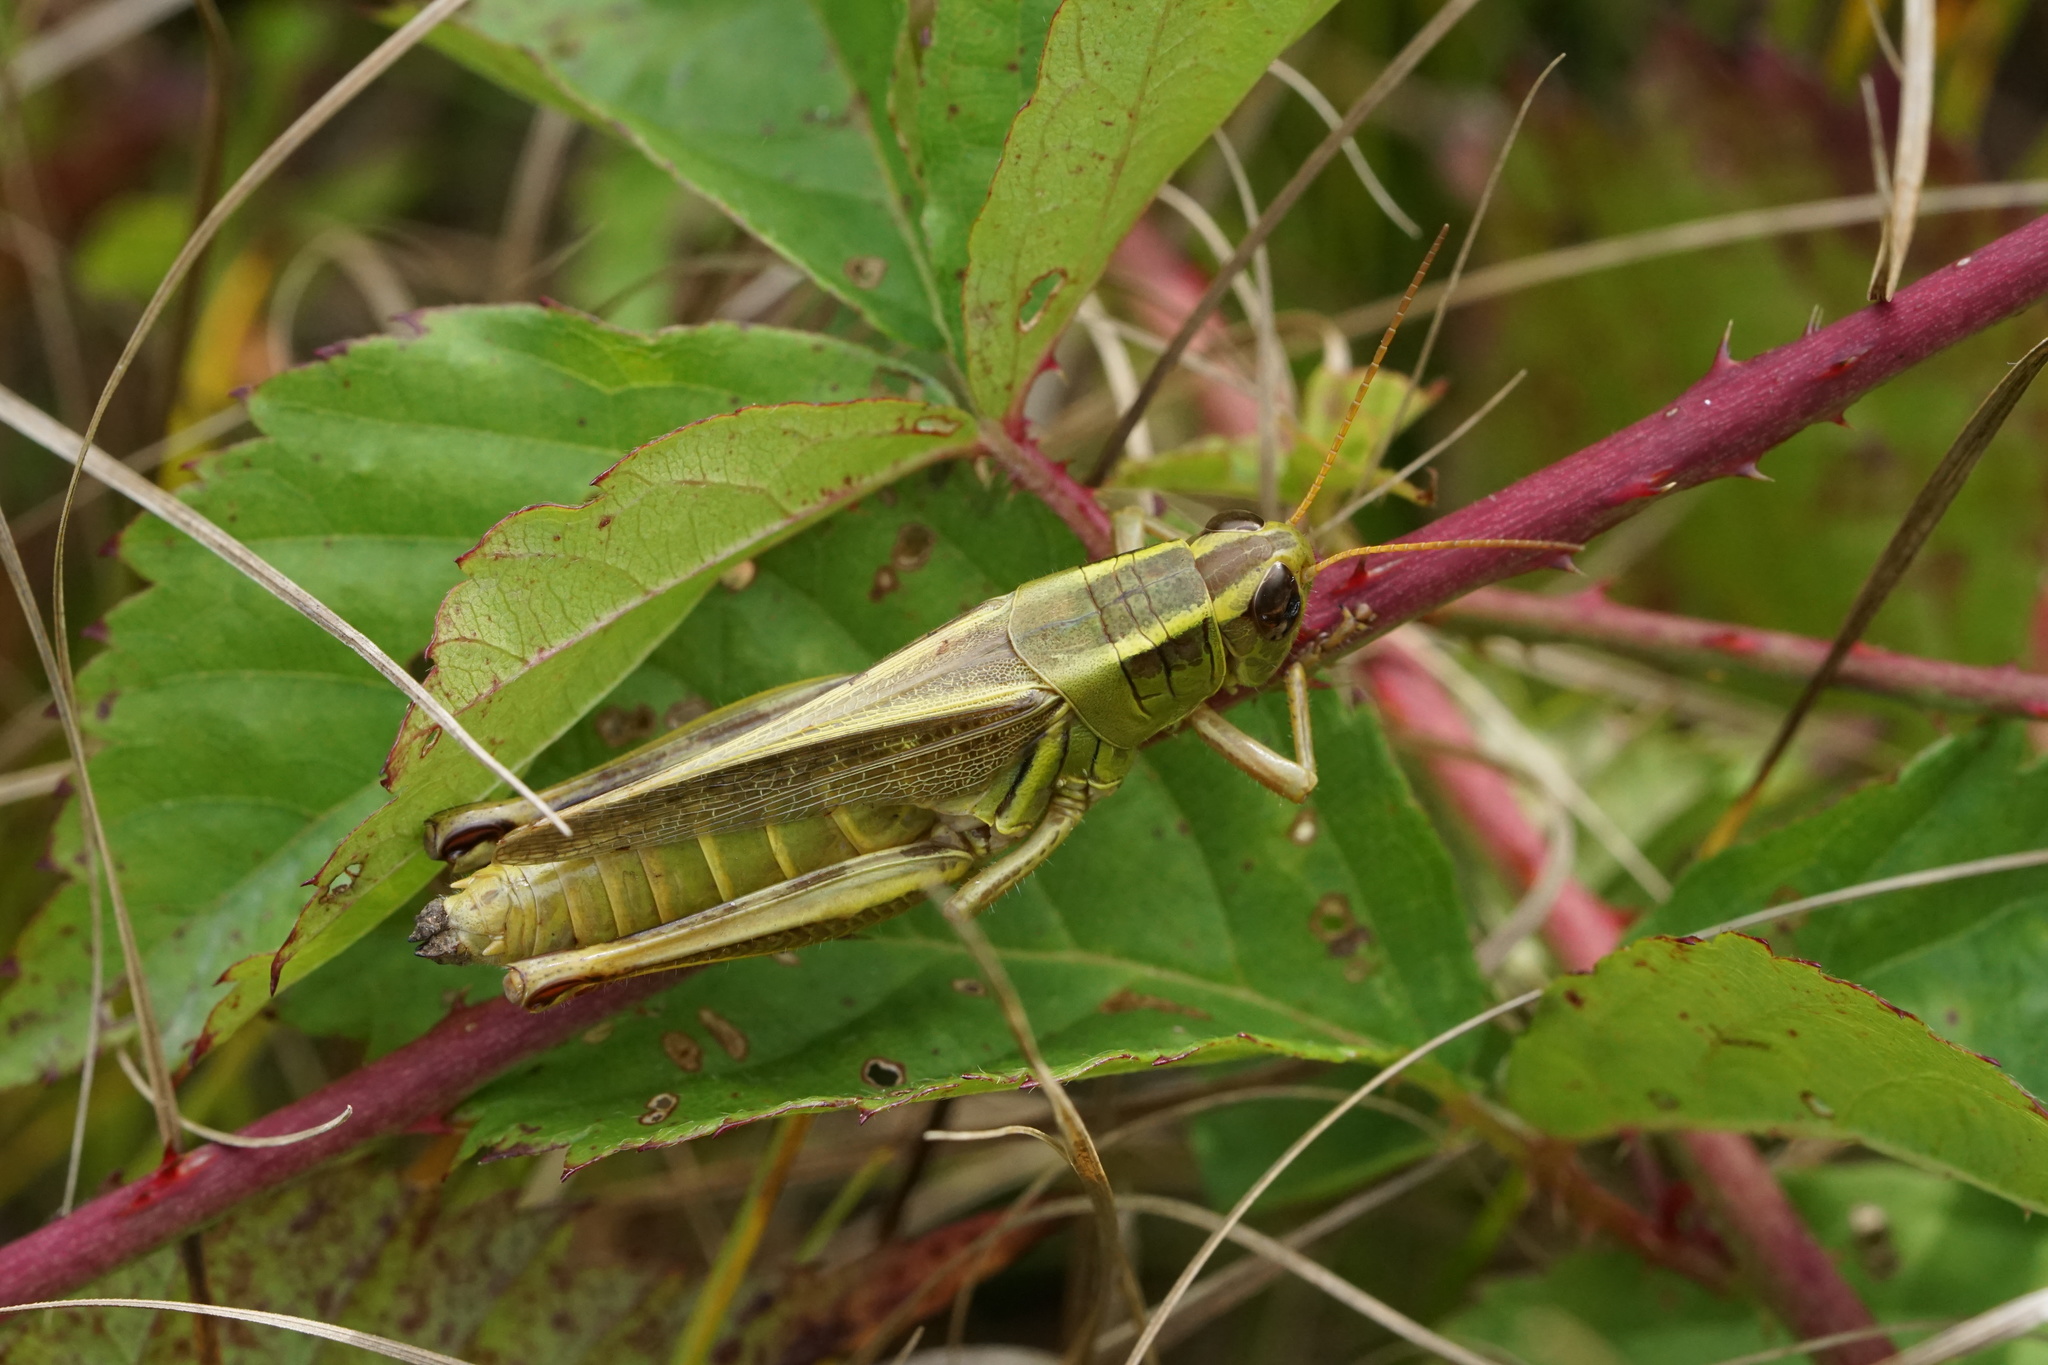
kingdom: Animalia
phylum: Arthropoda
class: Insecta
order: Orthoptera
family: Acrididae
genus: Melanoplus
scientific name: Melanoplus bivittatus
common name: Two-striped grasshopper
